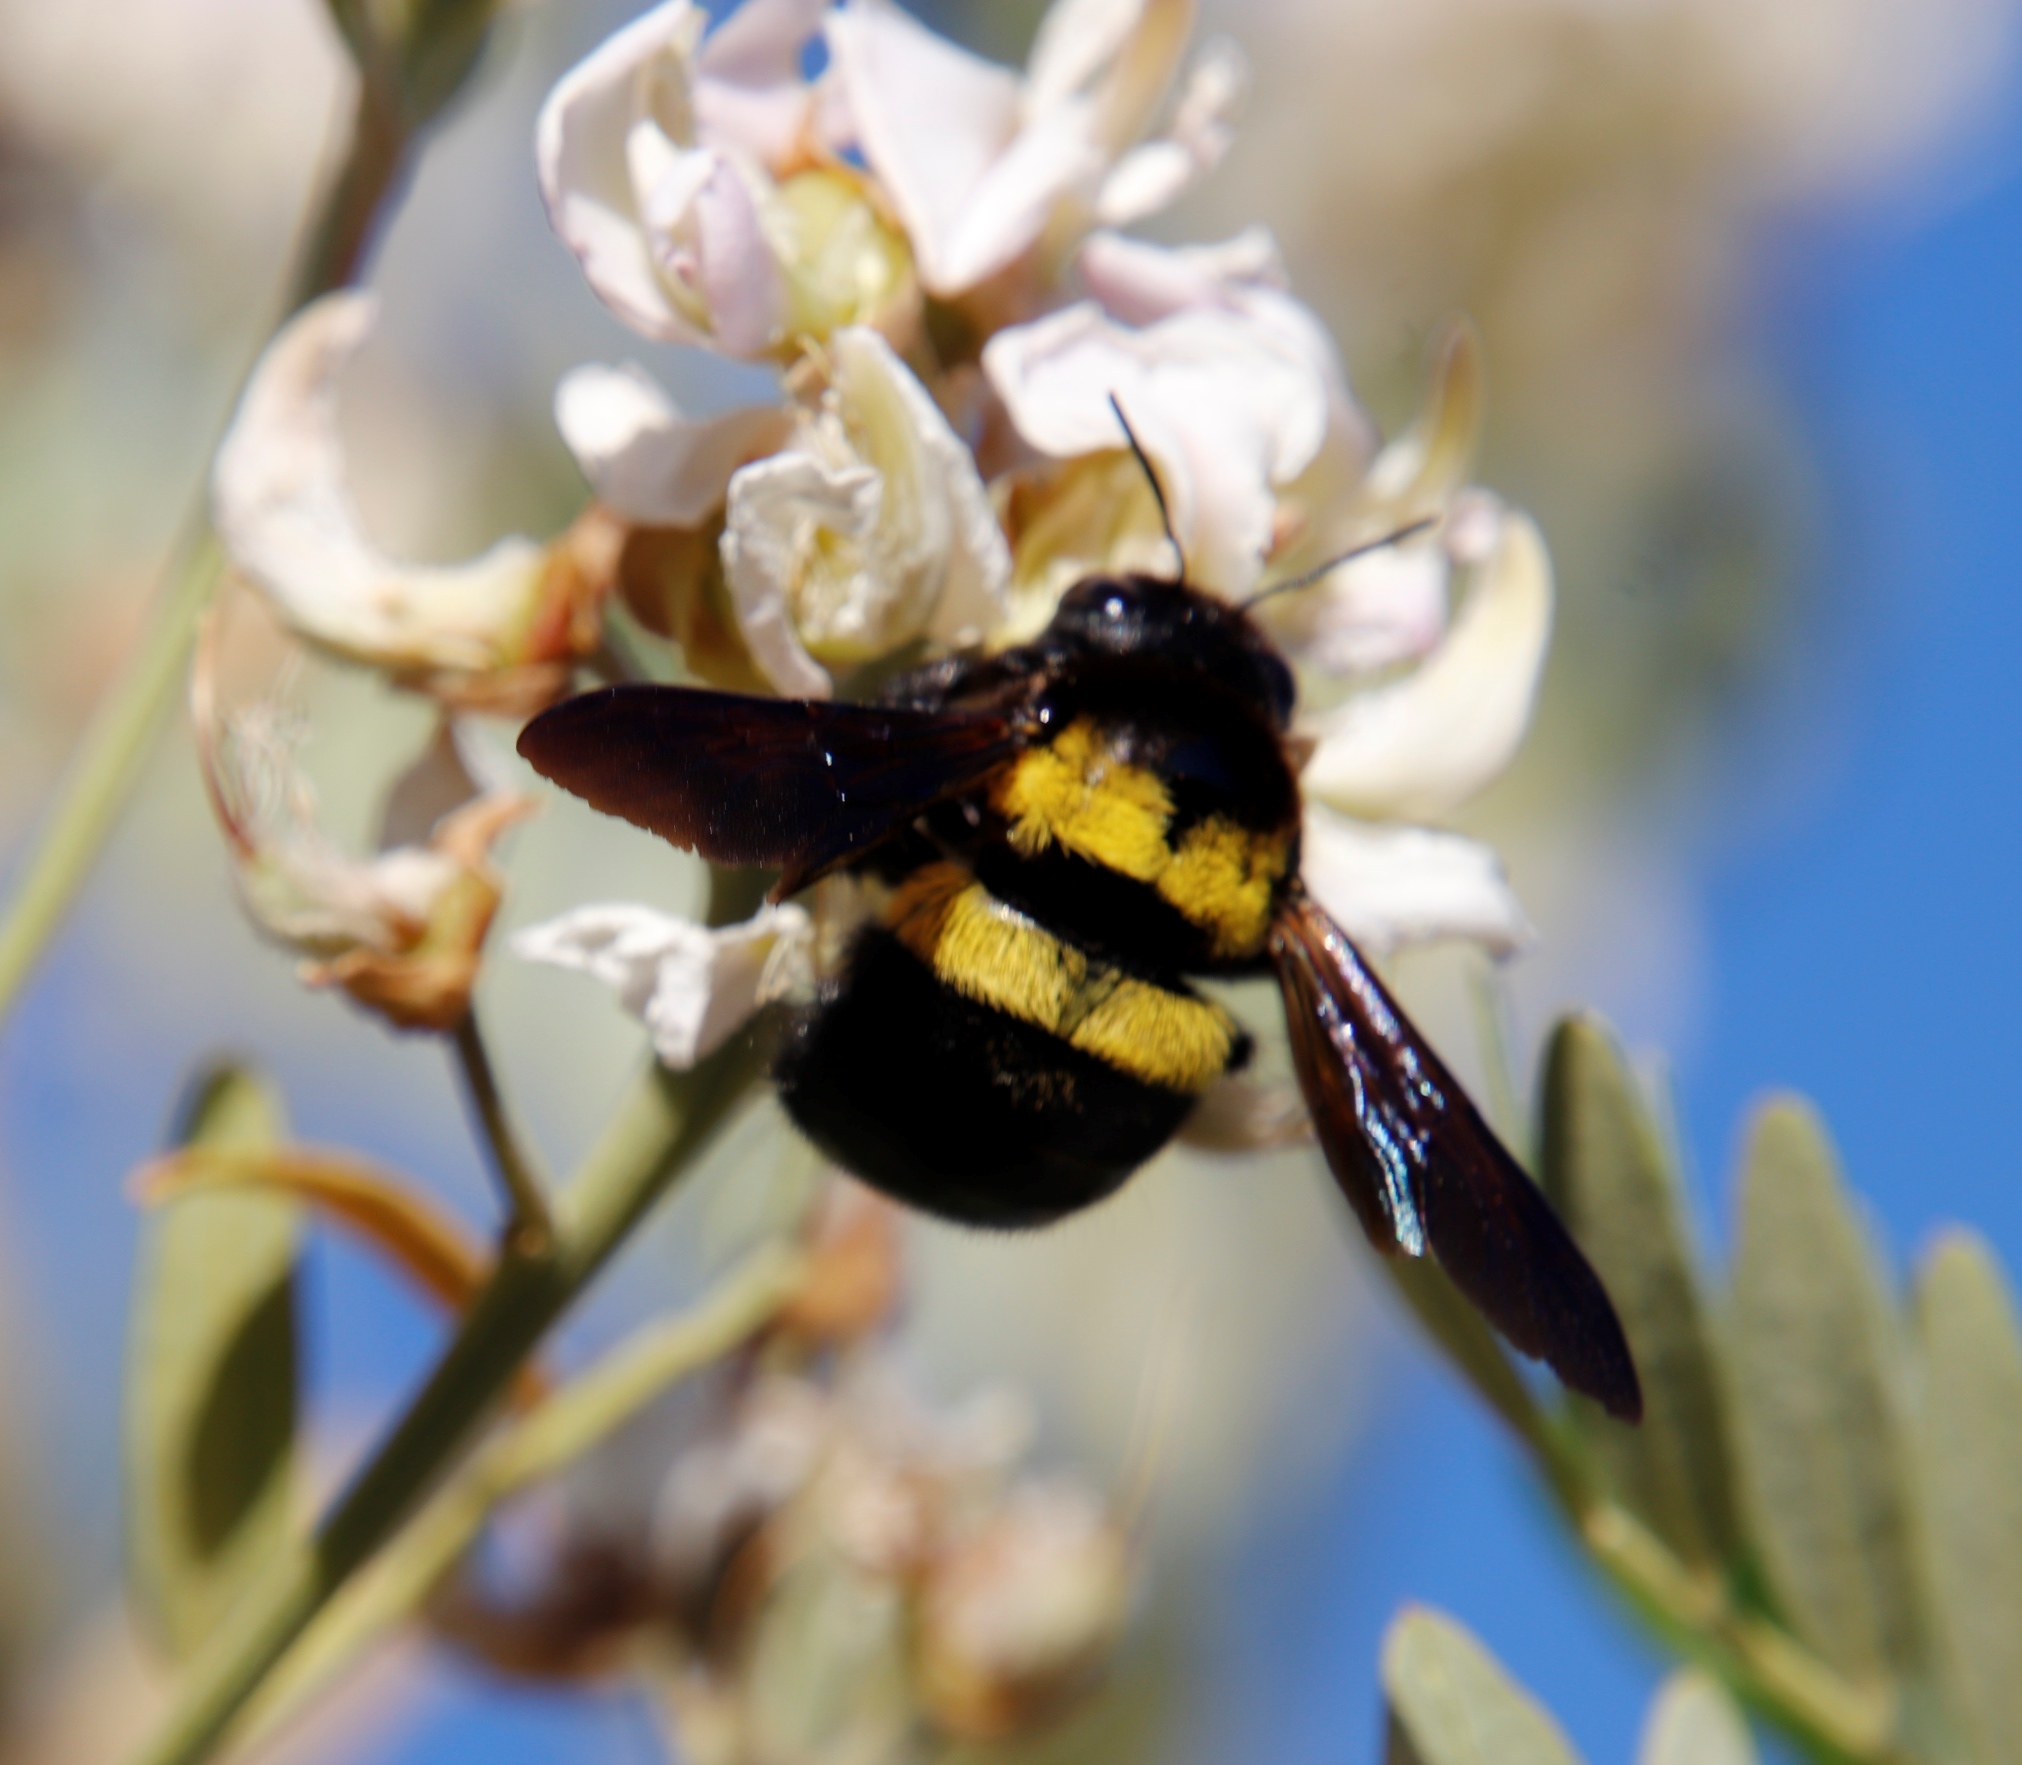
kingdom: Animalia
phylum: Arthropoda
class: Insecta
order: Hymenoptera
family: Apidae
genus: Xylocopa
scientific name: Xylocopa caffra
